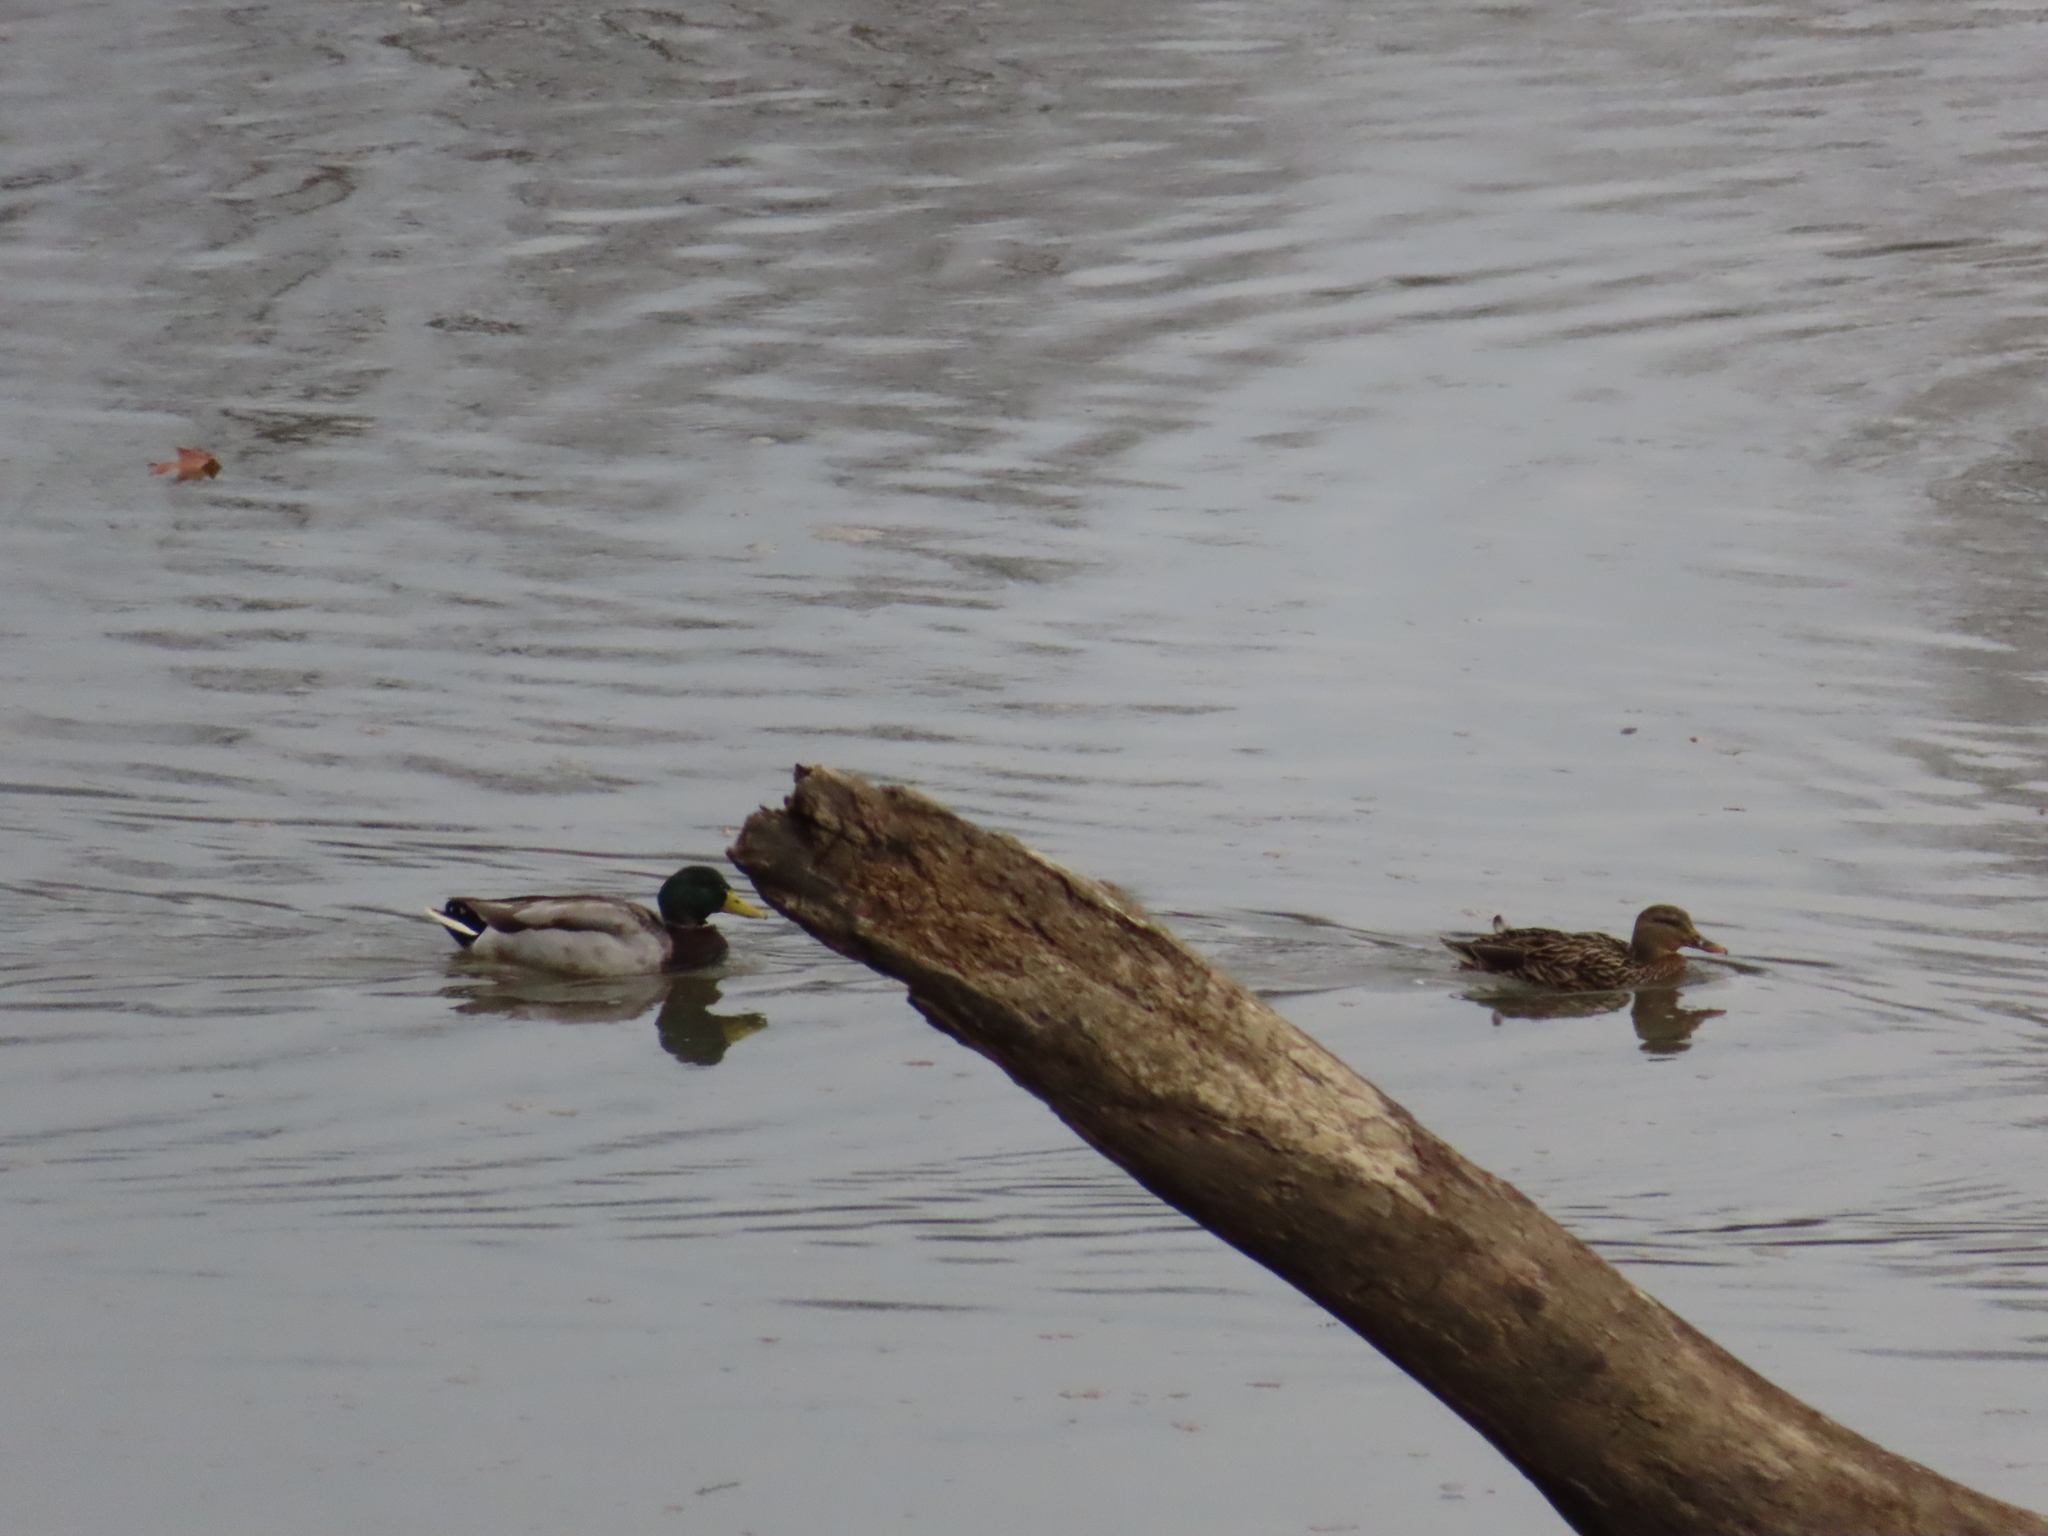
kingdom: Animalia
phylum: Chordata
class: Aves
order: Anseriformes
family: Anatidae
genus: Anas
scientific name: Anas platyrhynchos
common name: Mallard
